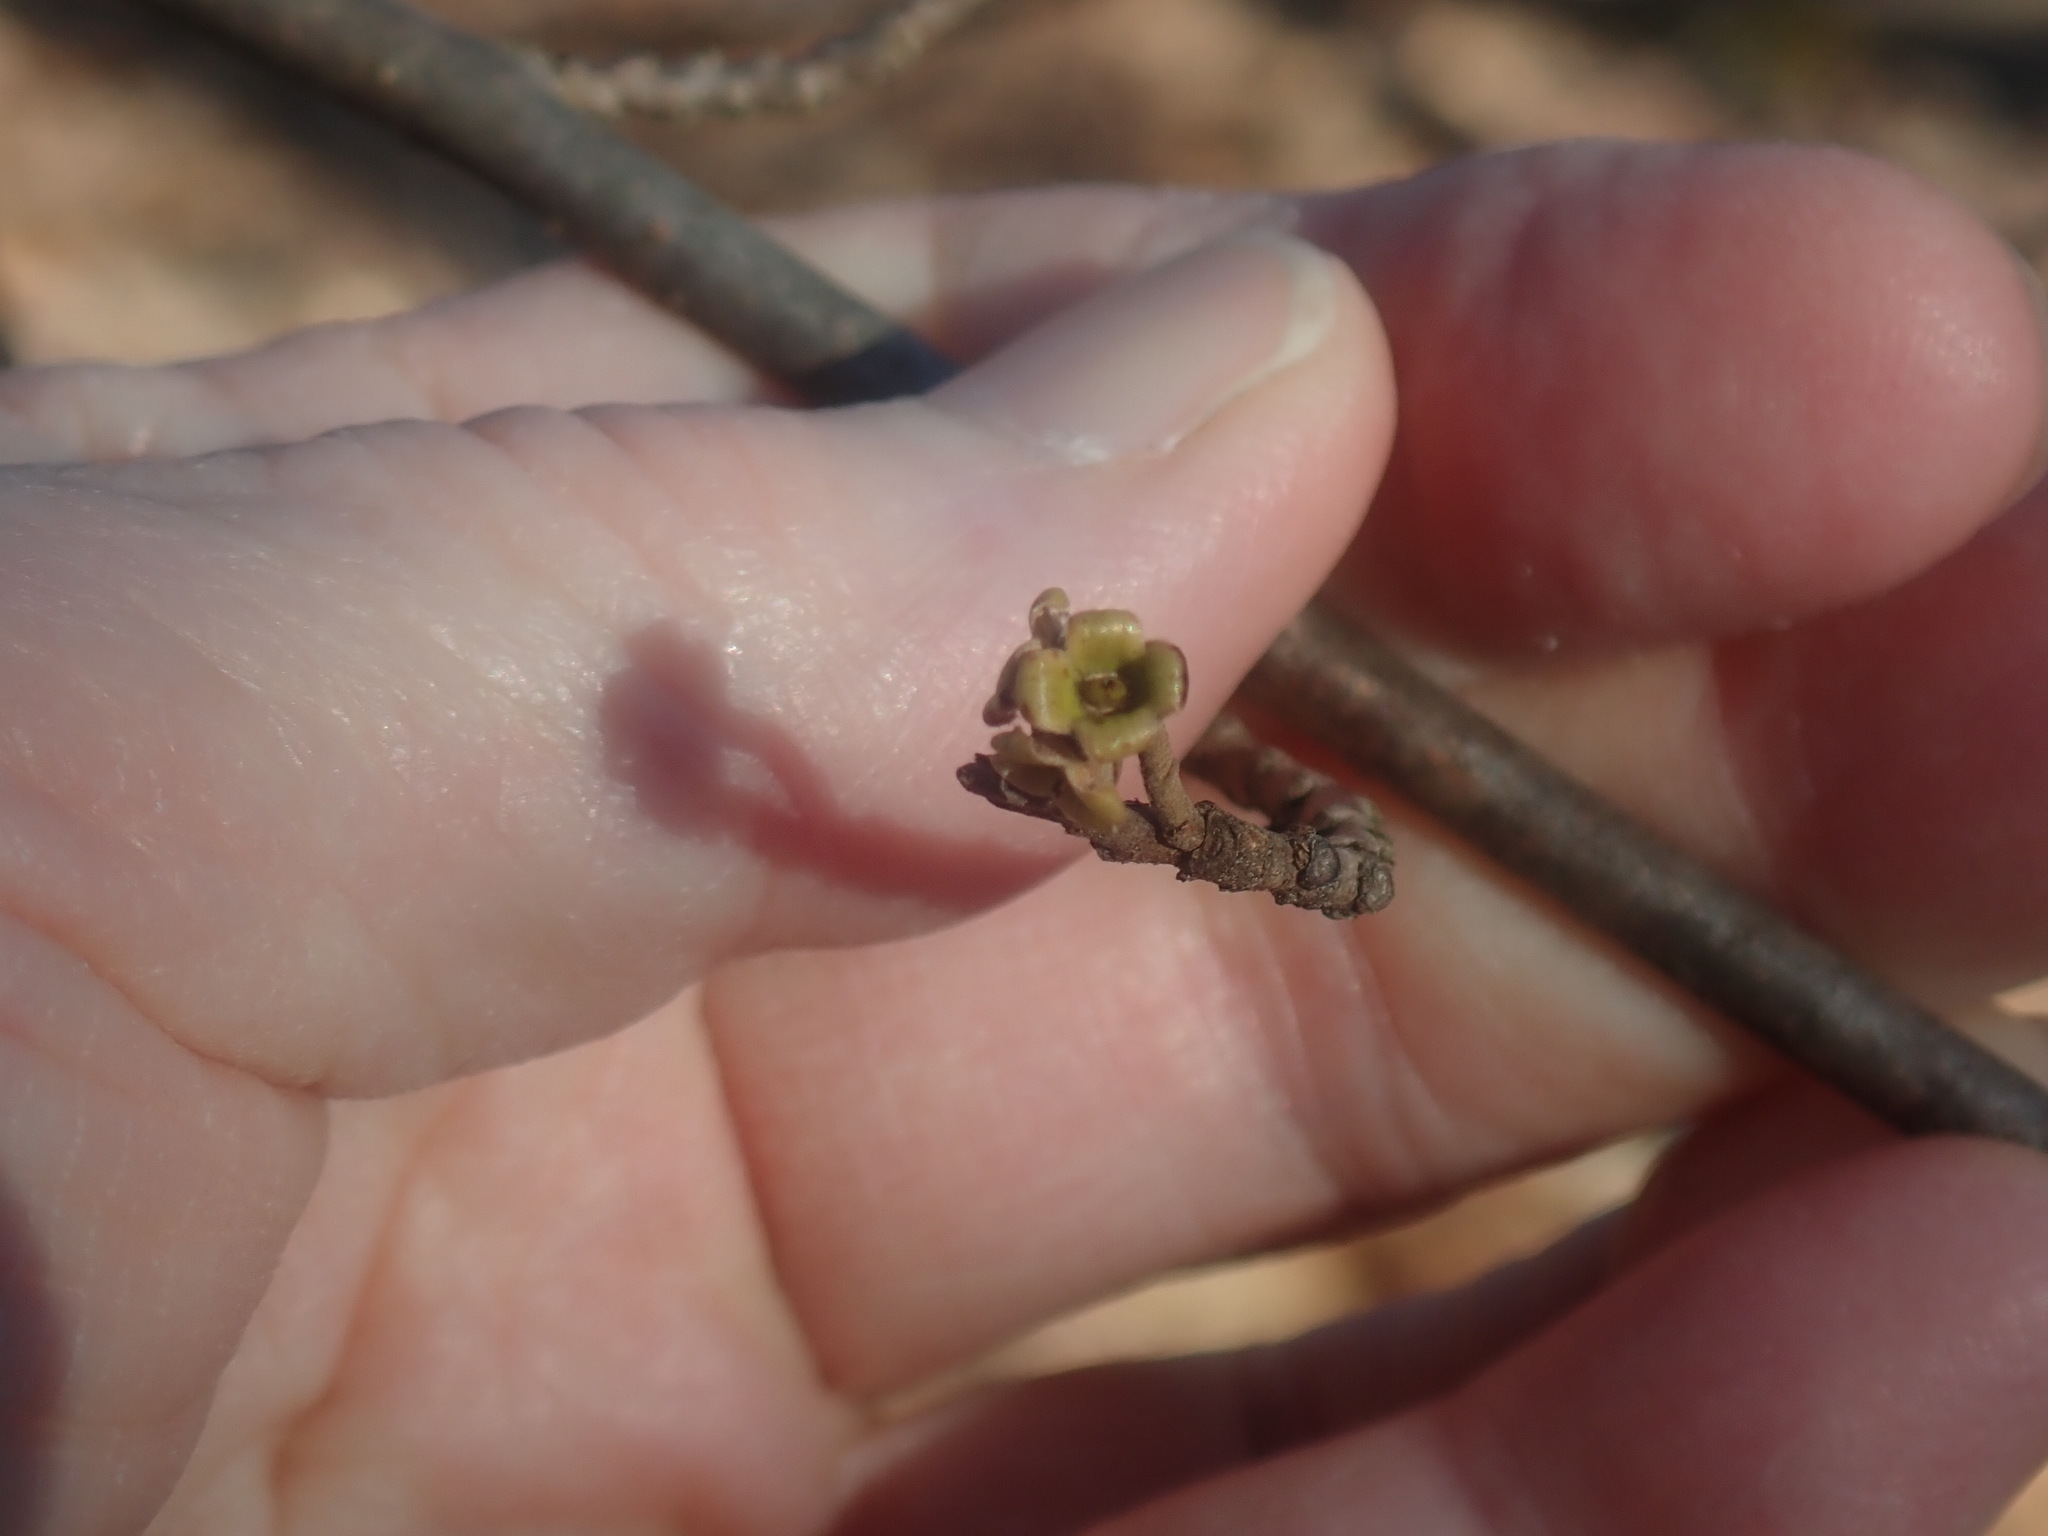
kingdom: Plantae
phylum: Tracheophyta
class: Magnoliopsida
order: Saxifragales
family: Hamamelidaceae
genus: Hamamelis
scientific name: Hamamelis virginiana
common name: Witch-hazel
